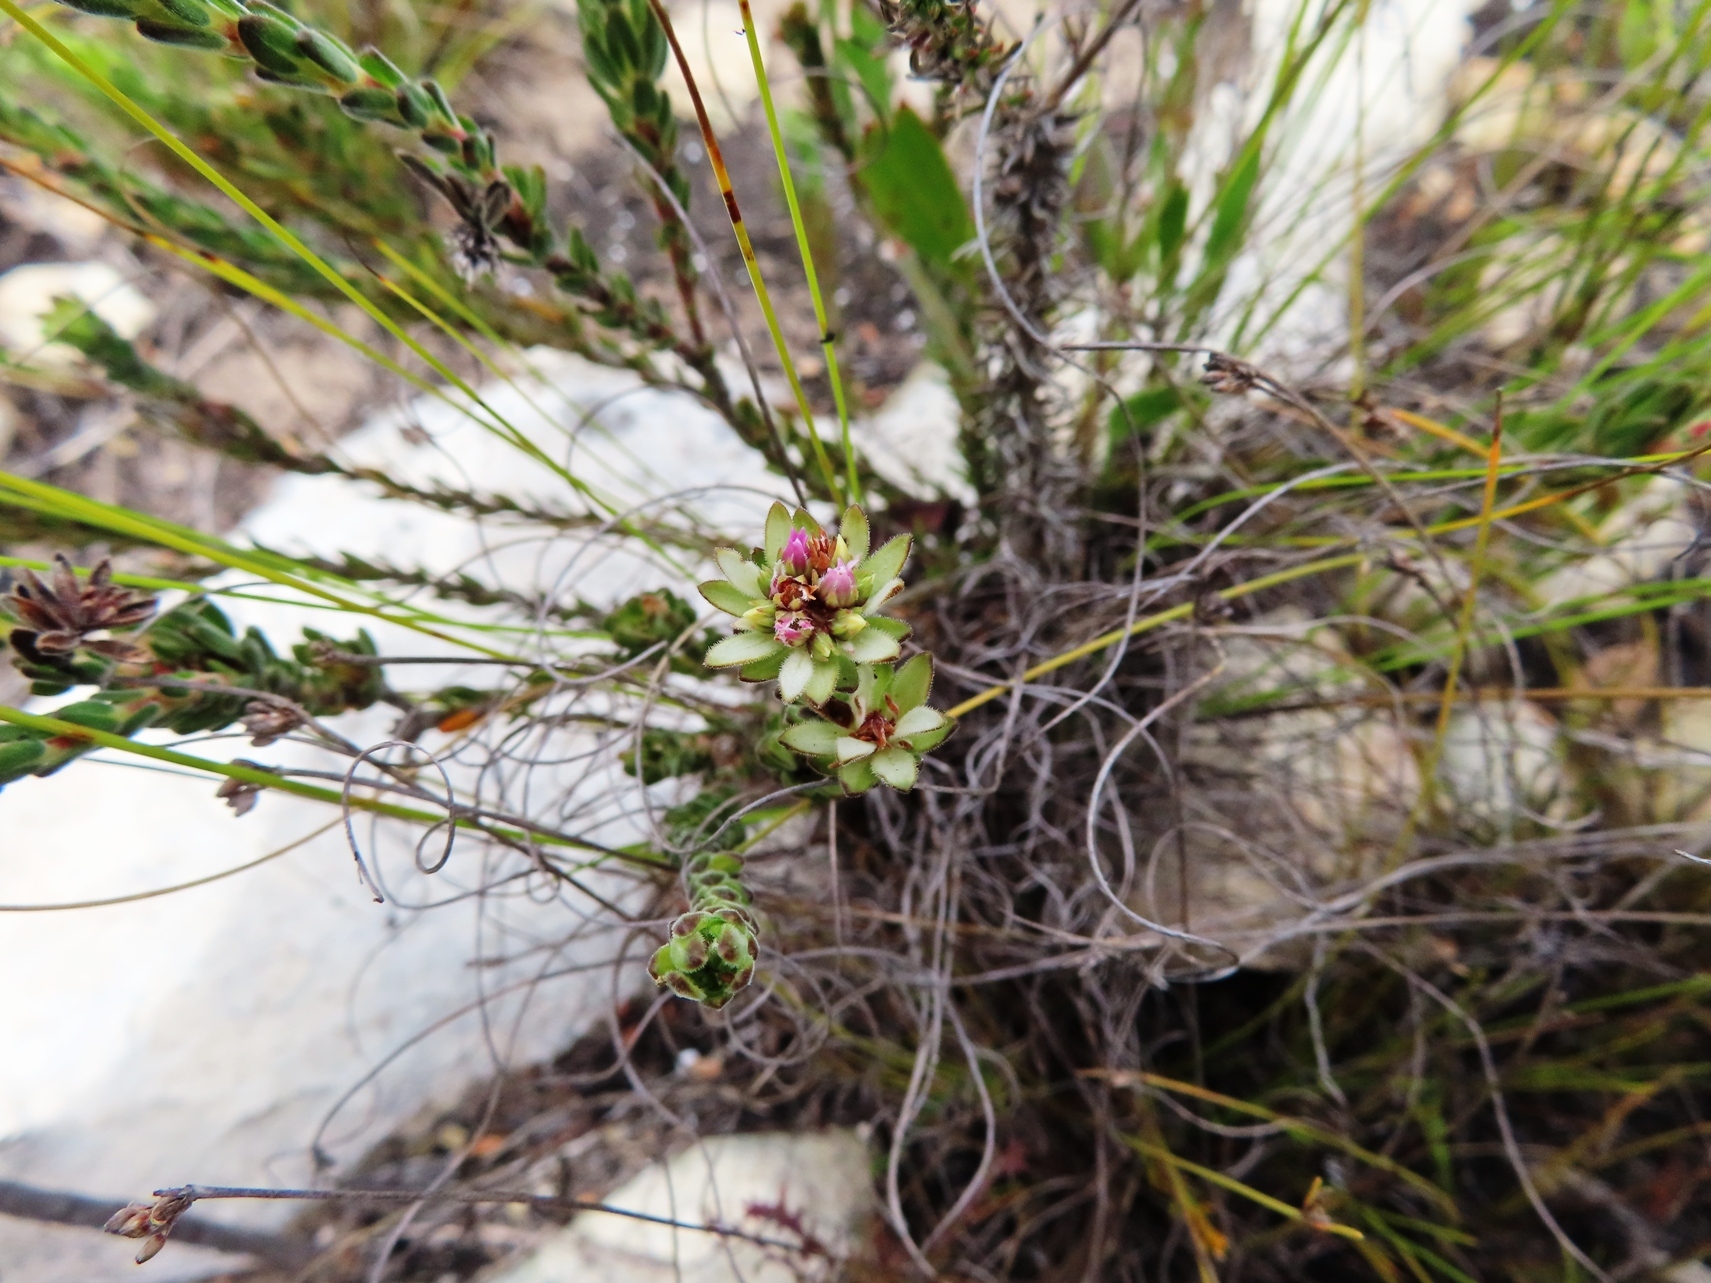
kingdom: Plantae
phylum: Tracheophyta
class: Magnoliopsida
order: Sapindales
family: Rutaceae
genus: Euchaetis
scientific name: Euchaetis longibracteata
